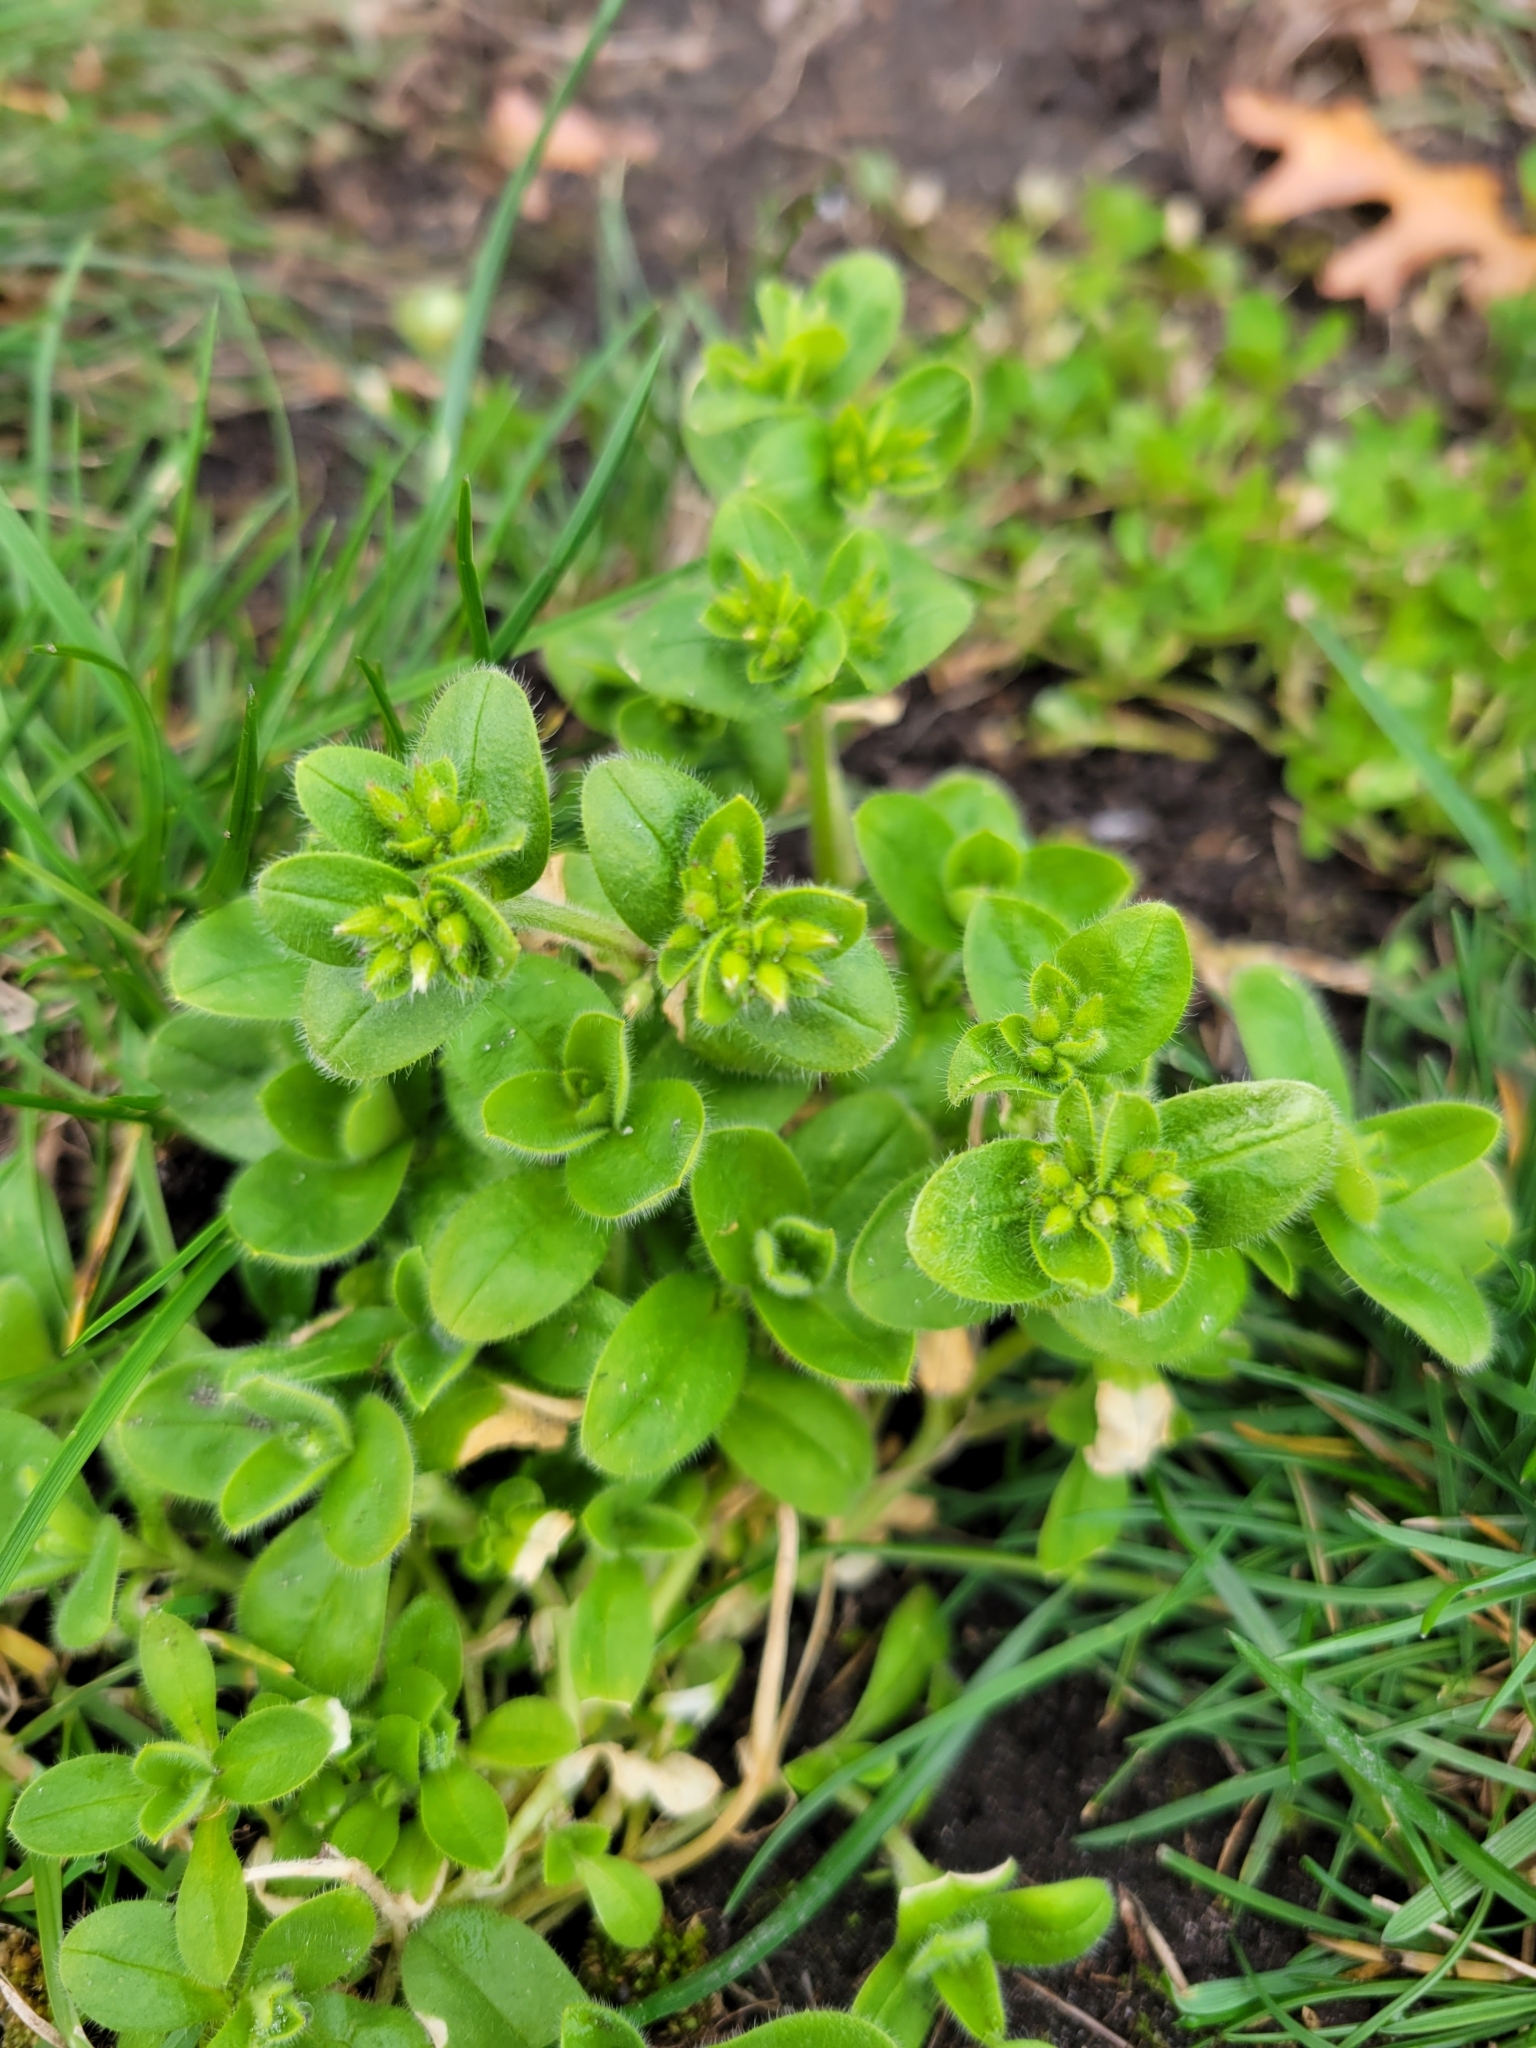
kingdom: Plantae
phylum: Tracheophyta
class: Magnoliopsida
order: Caryophyllales
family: Caryophyllaceae
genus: Cerastium
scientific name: Cerastium glomeratum
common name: Sticky chickweed
